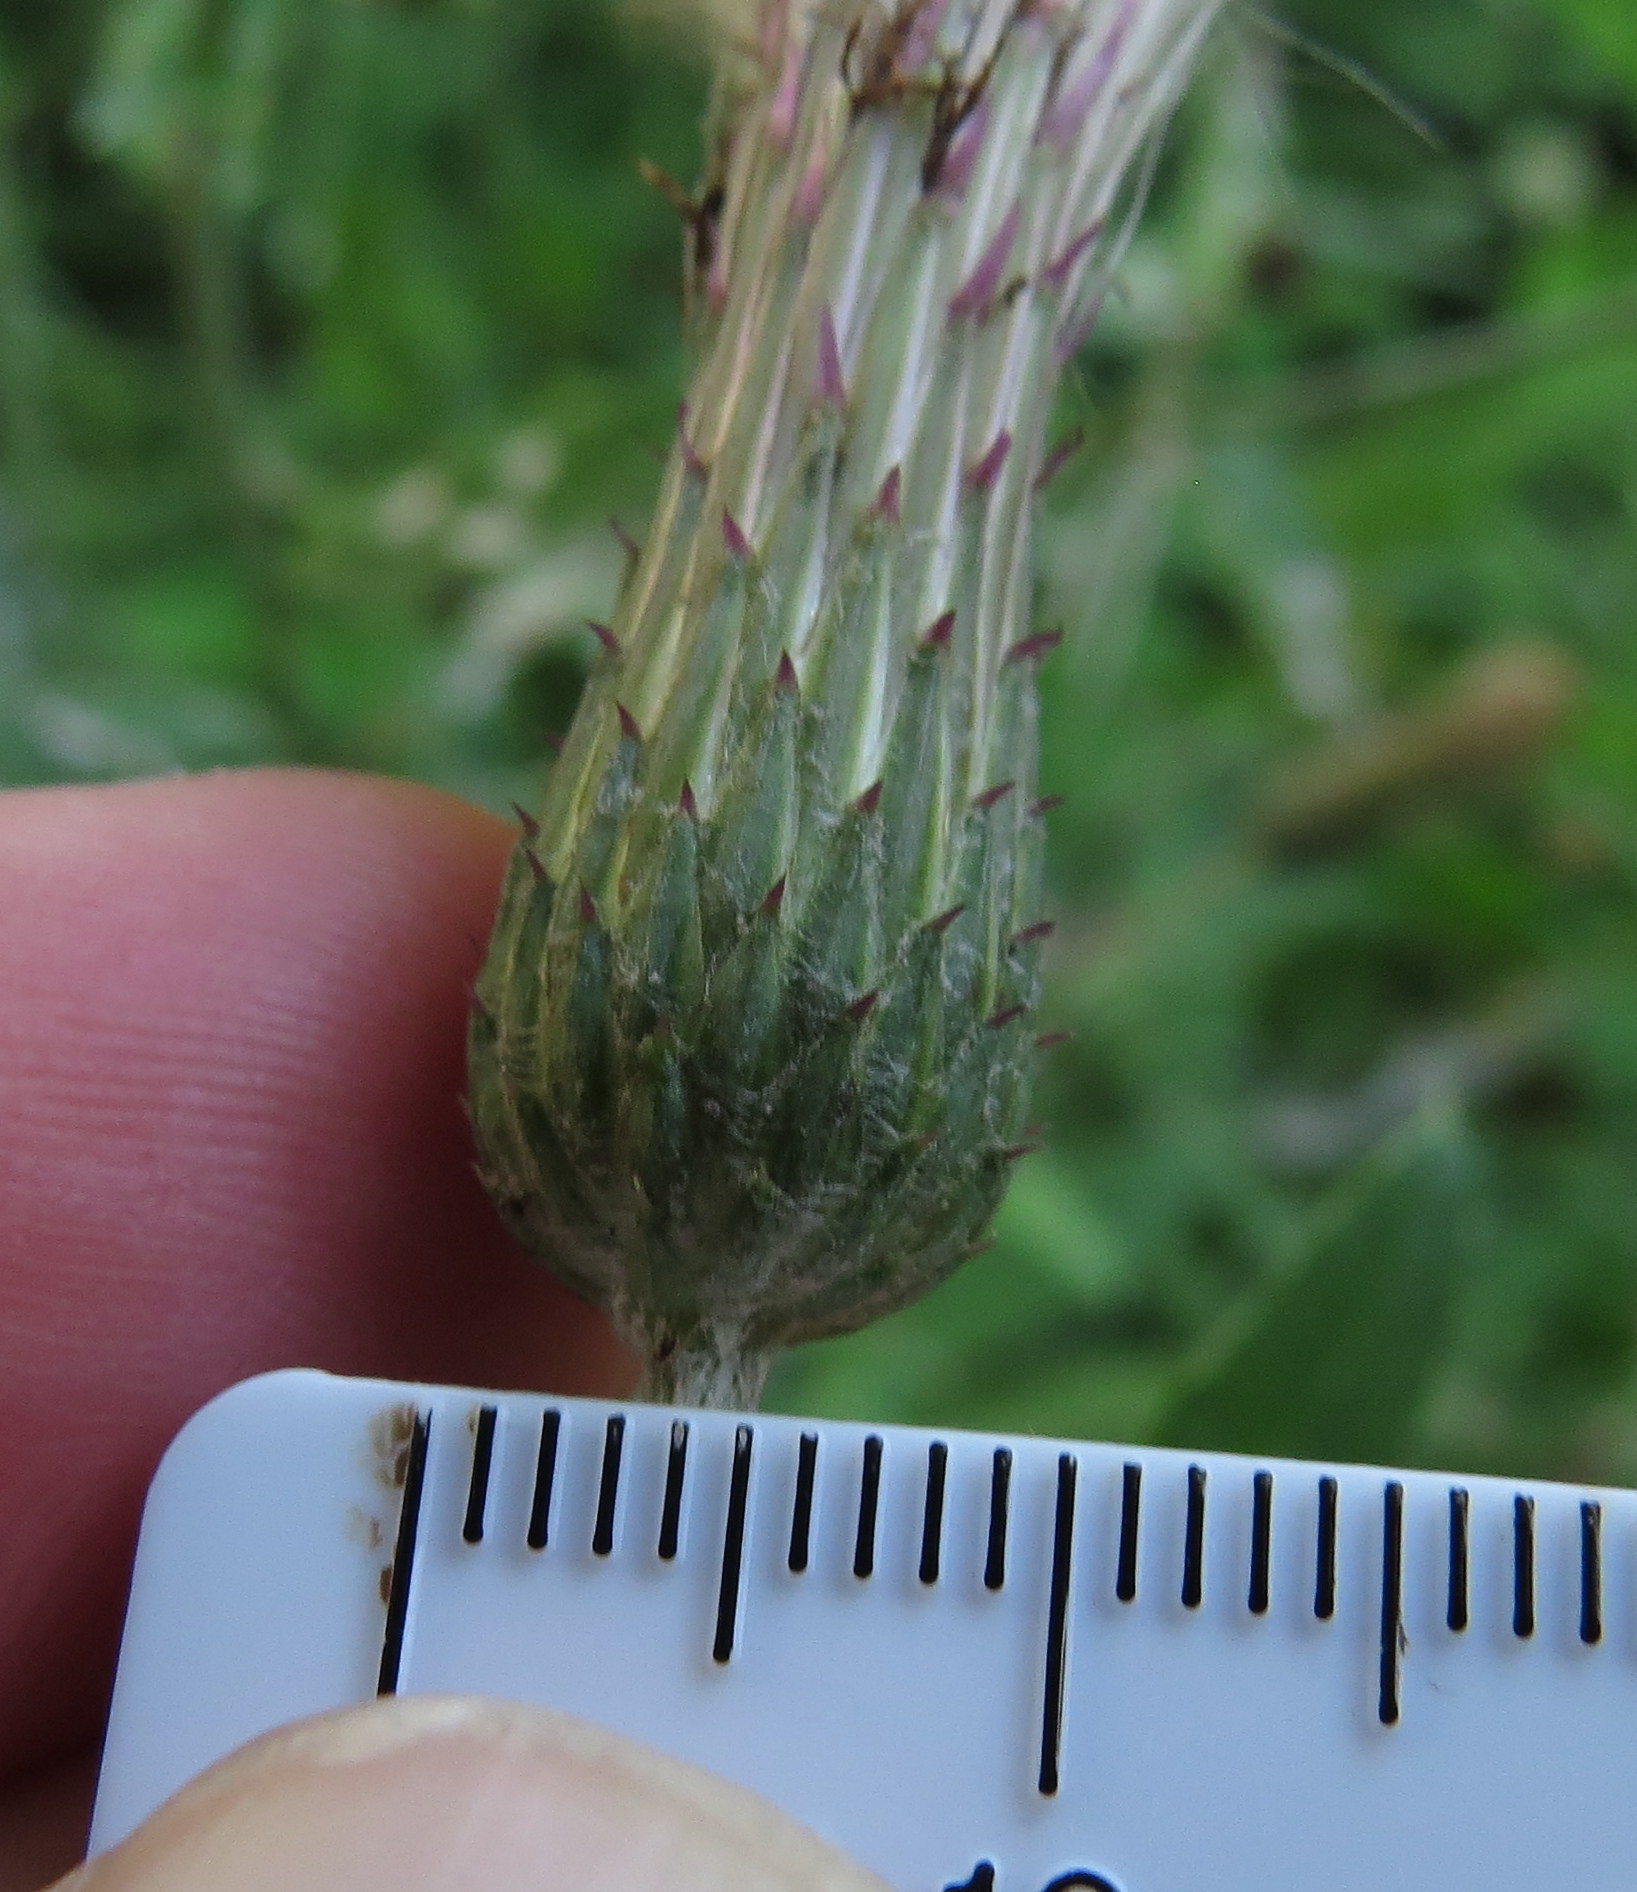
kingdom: Plantae
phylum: Tracheophyta
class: Magnoliopsida
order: Asterales
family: Asteraceae
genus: Cirsium
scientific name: Cirsium arvense
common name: Creeping thistle
